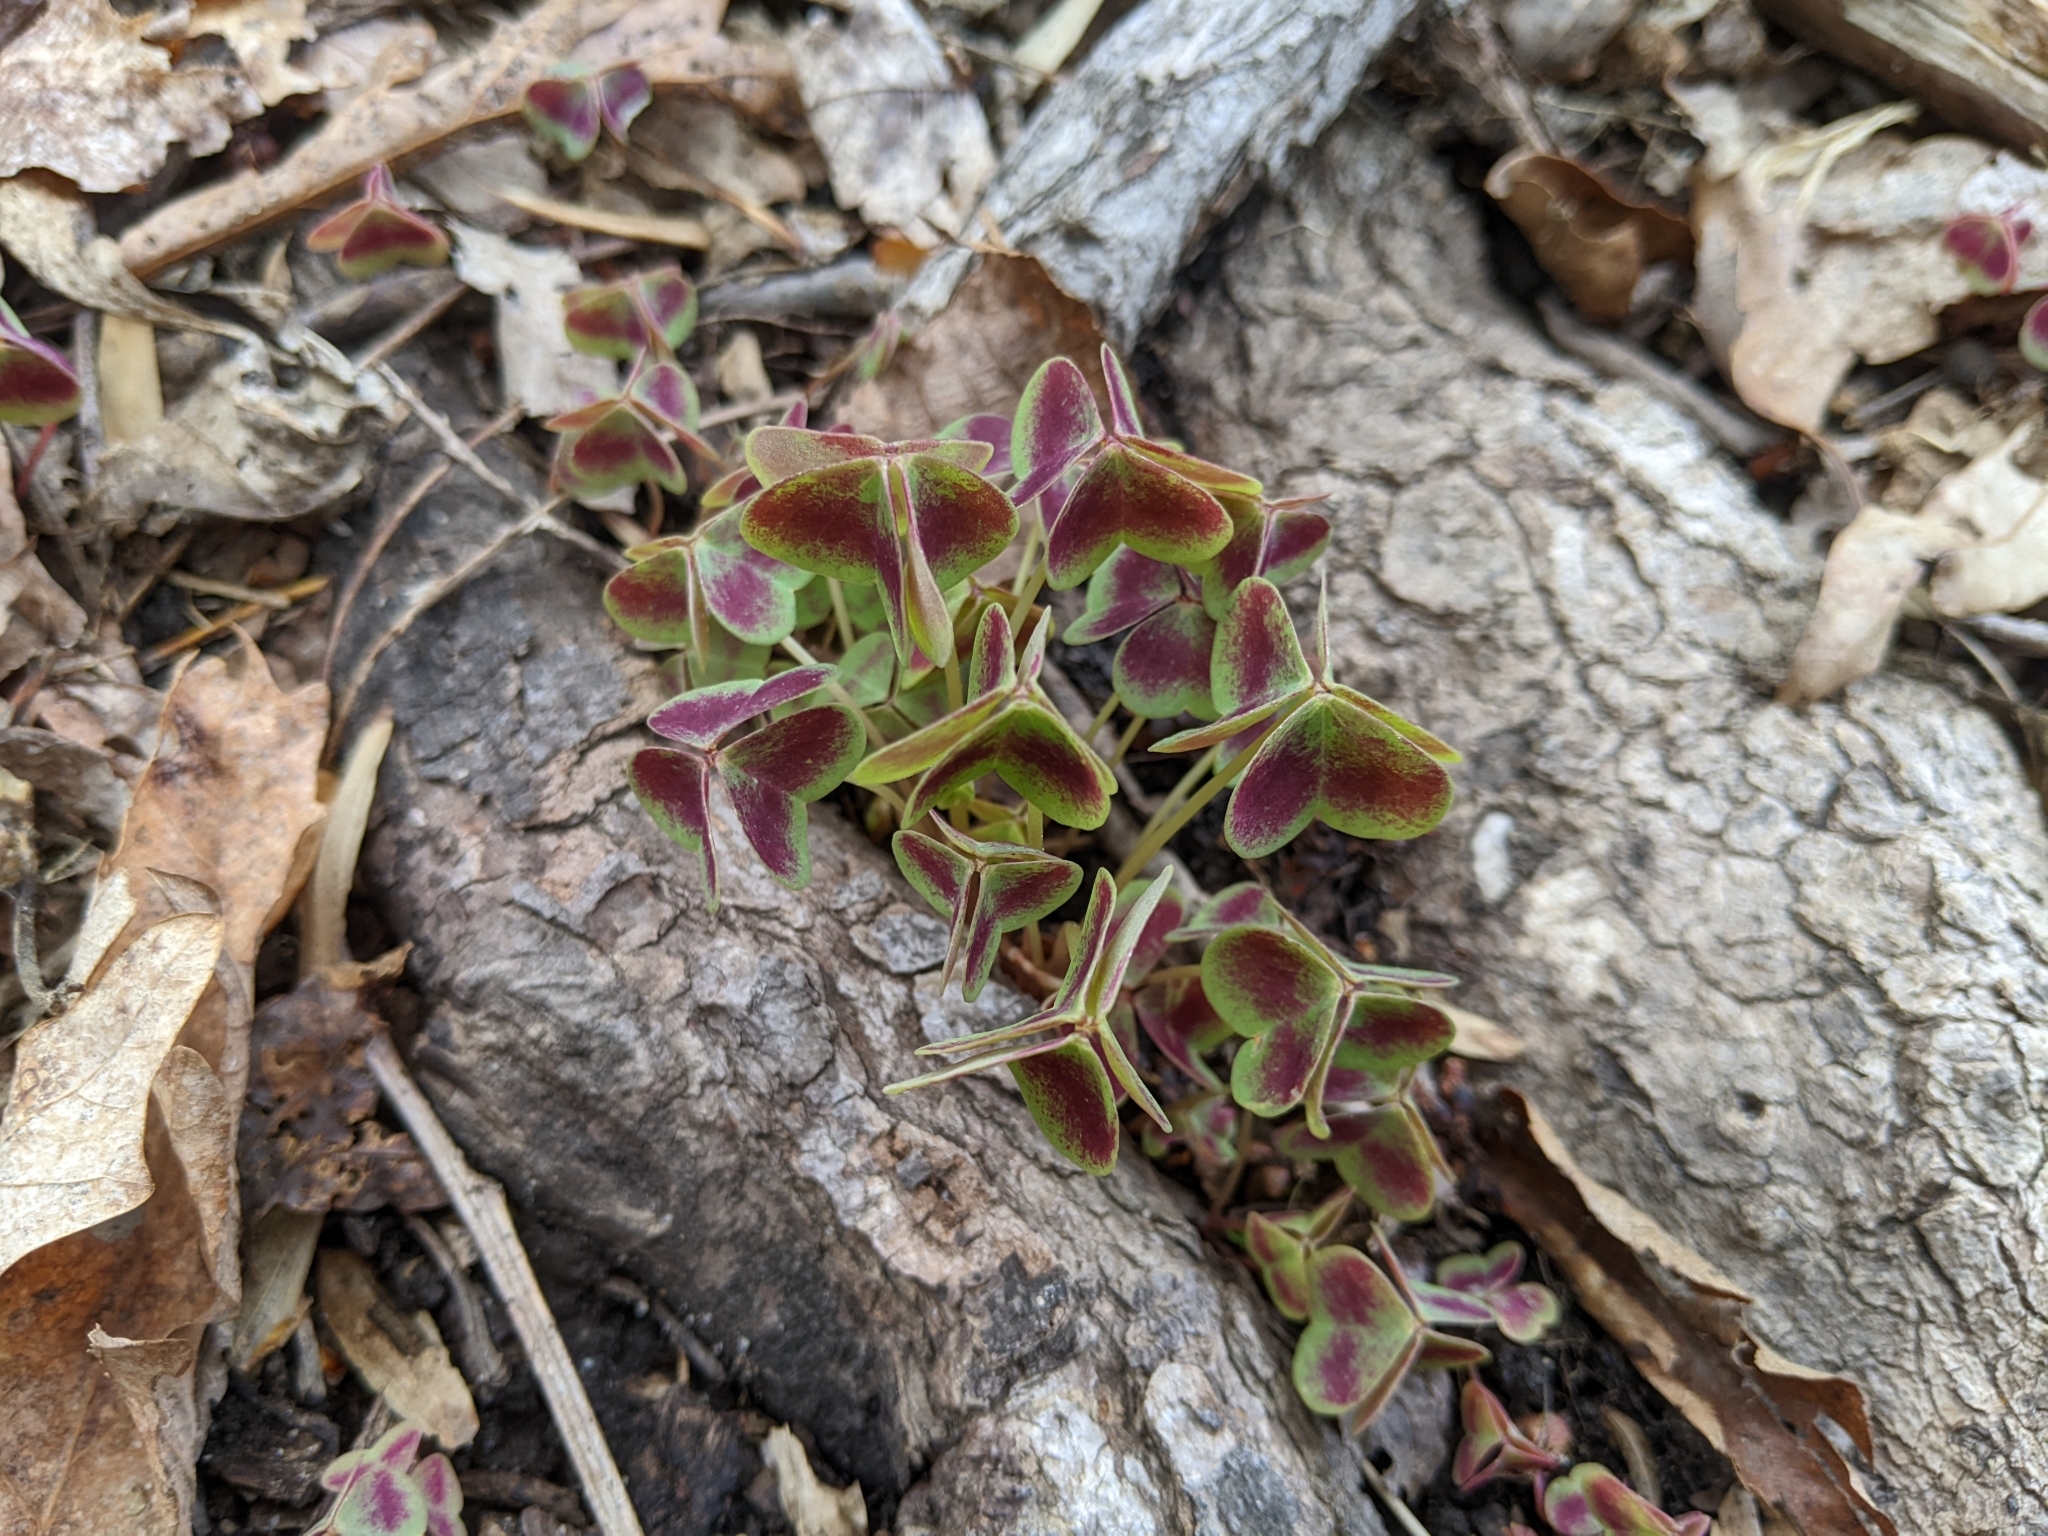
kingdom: Plantae
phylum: Tracheophyta
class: Magnoliopsida
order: Oxalidales
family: Oxalidaceae
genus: Oxalis
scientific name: Oxalis violacea
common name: Violet wood-sorrel
